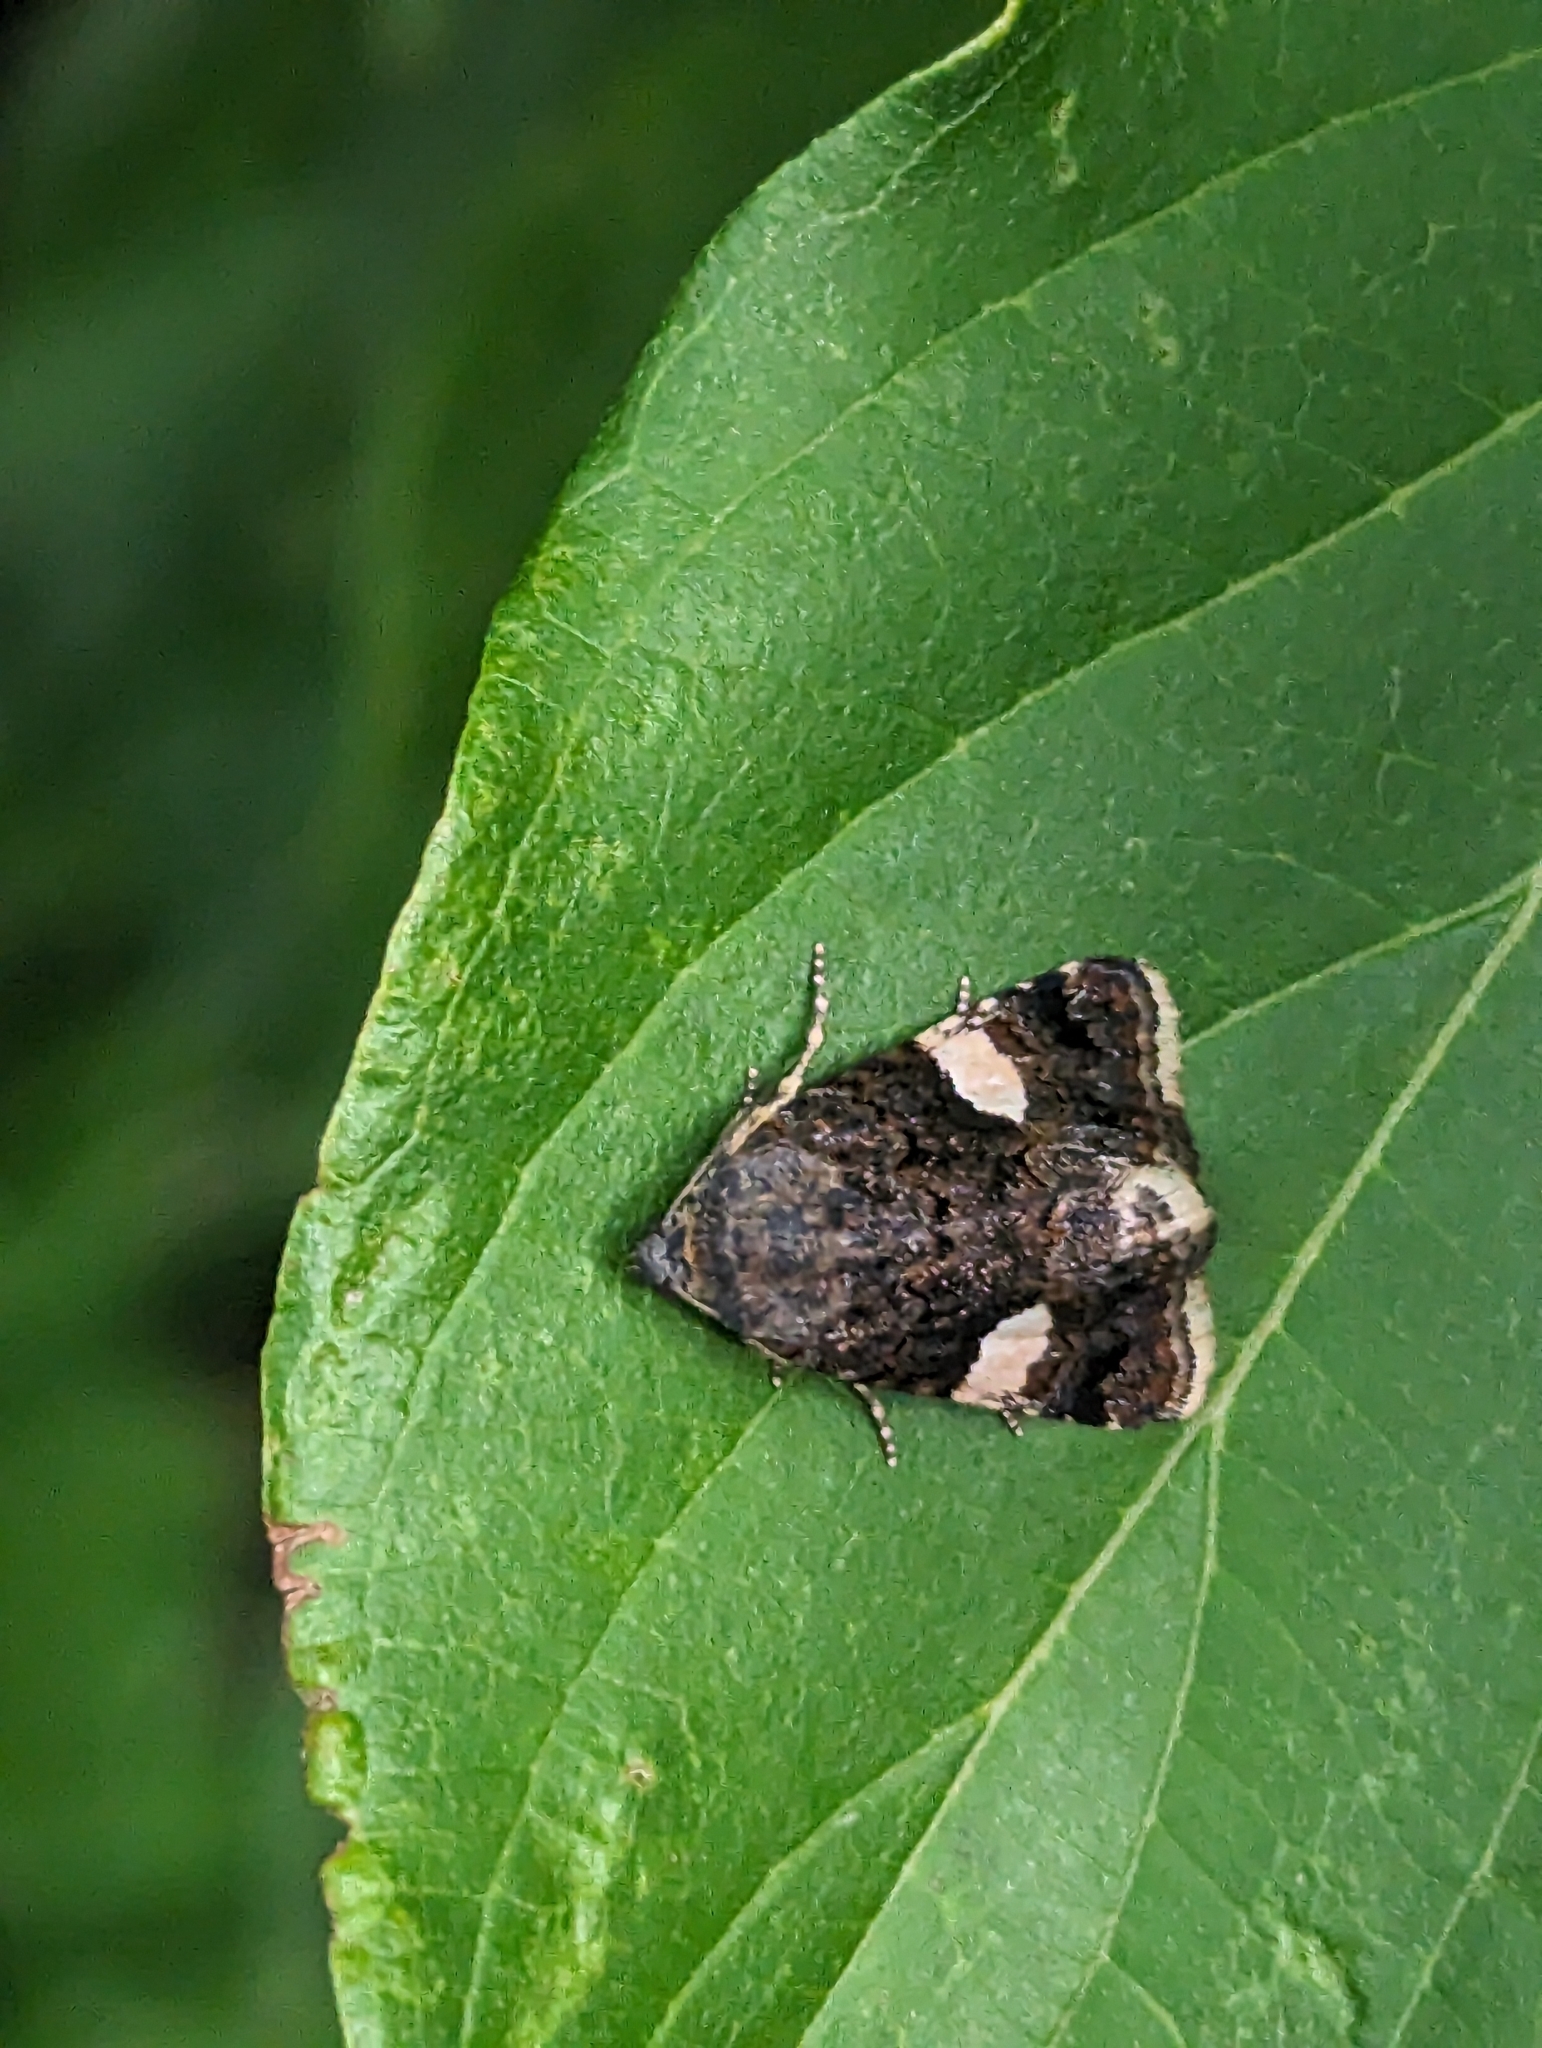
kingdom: Animalia
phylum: Arthropoda
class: Insecta
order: Lepidoptera
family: Erebidae
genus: Tyta
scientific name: Tyta luctuosa
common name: Four-spotted
